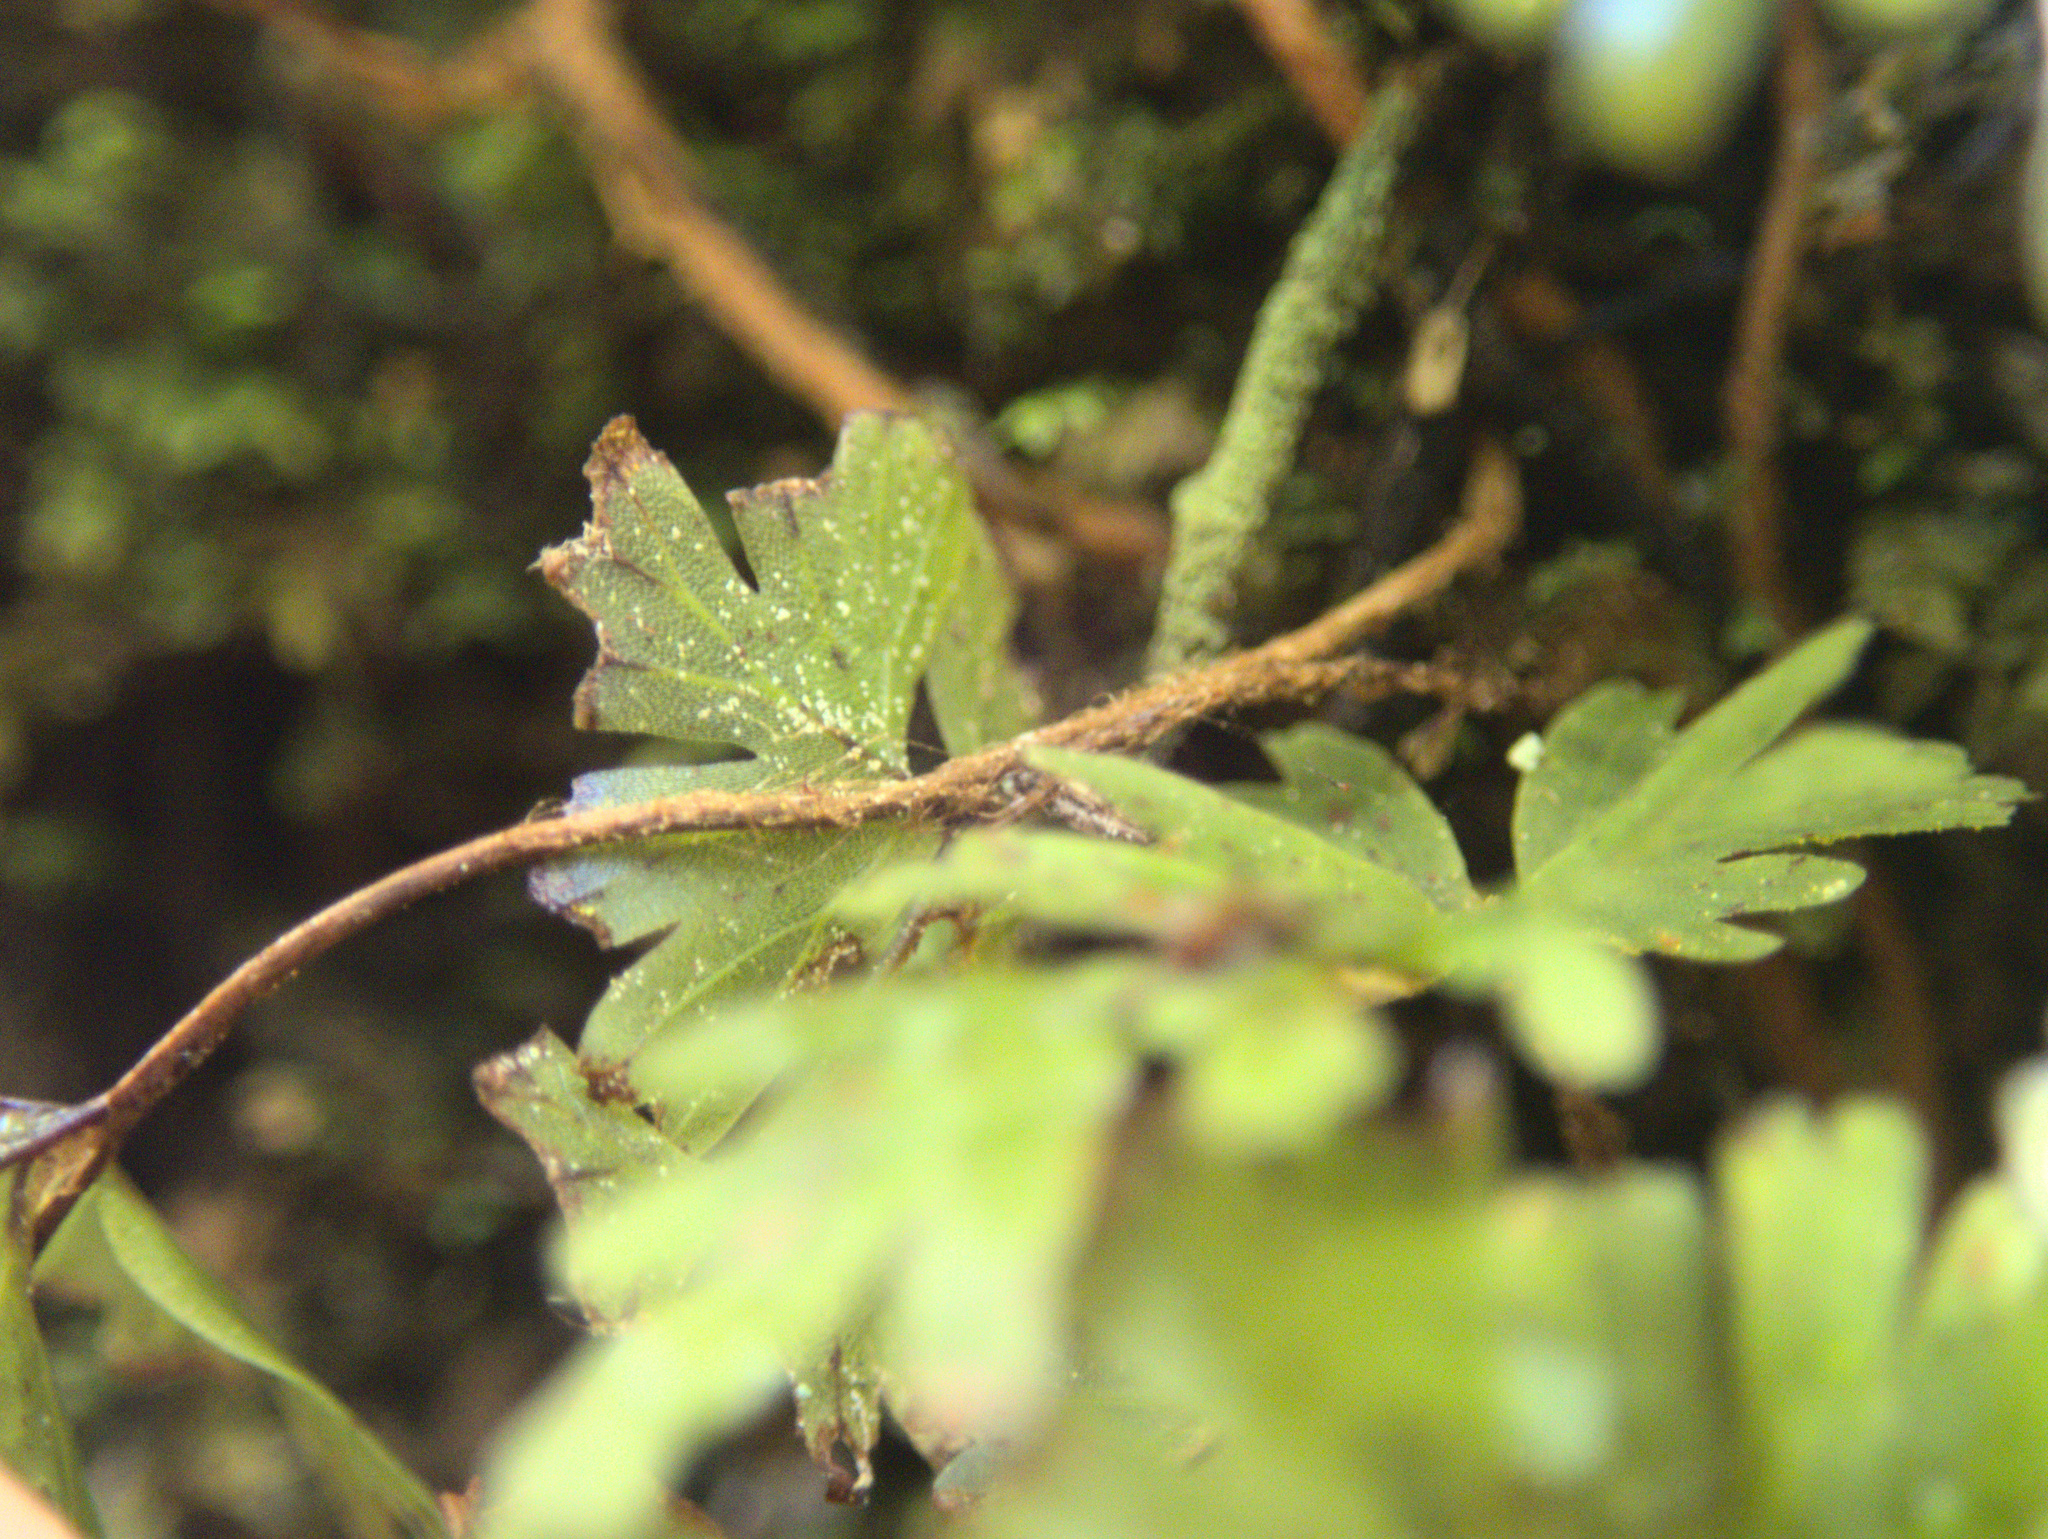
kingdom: Plantae
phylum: Tracheophyta
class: Polypodiopsida
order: Hymenophyllales
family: Hymenophyllaceae
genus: Hymenophyllum
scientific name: Hymenophyllum flabellatum
